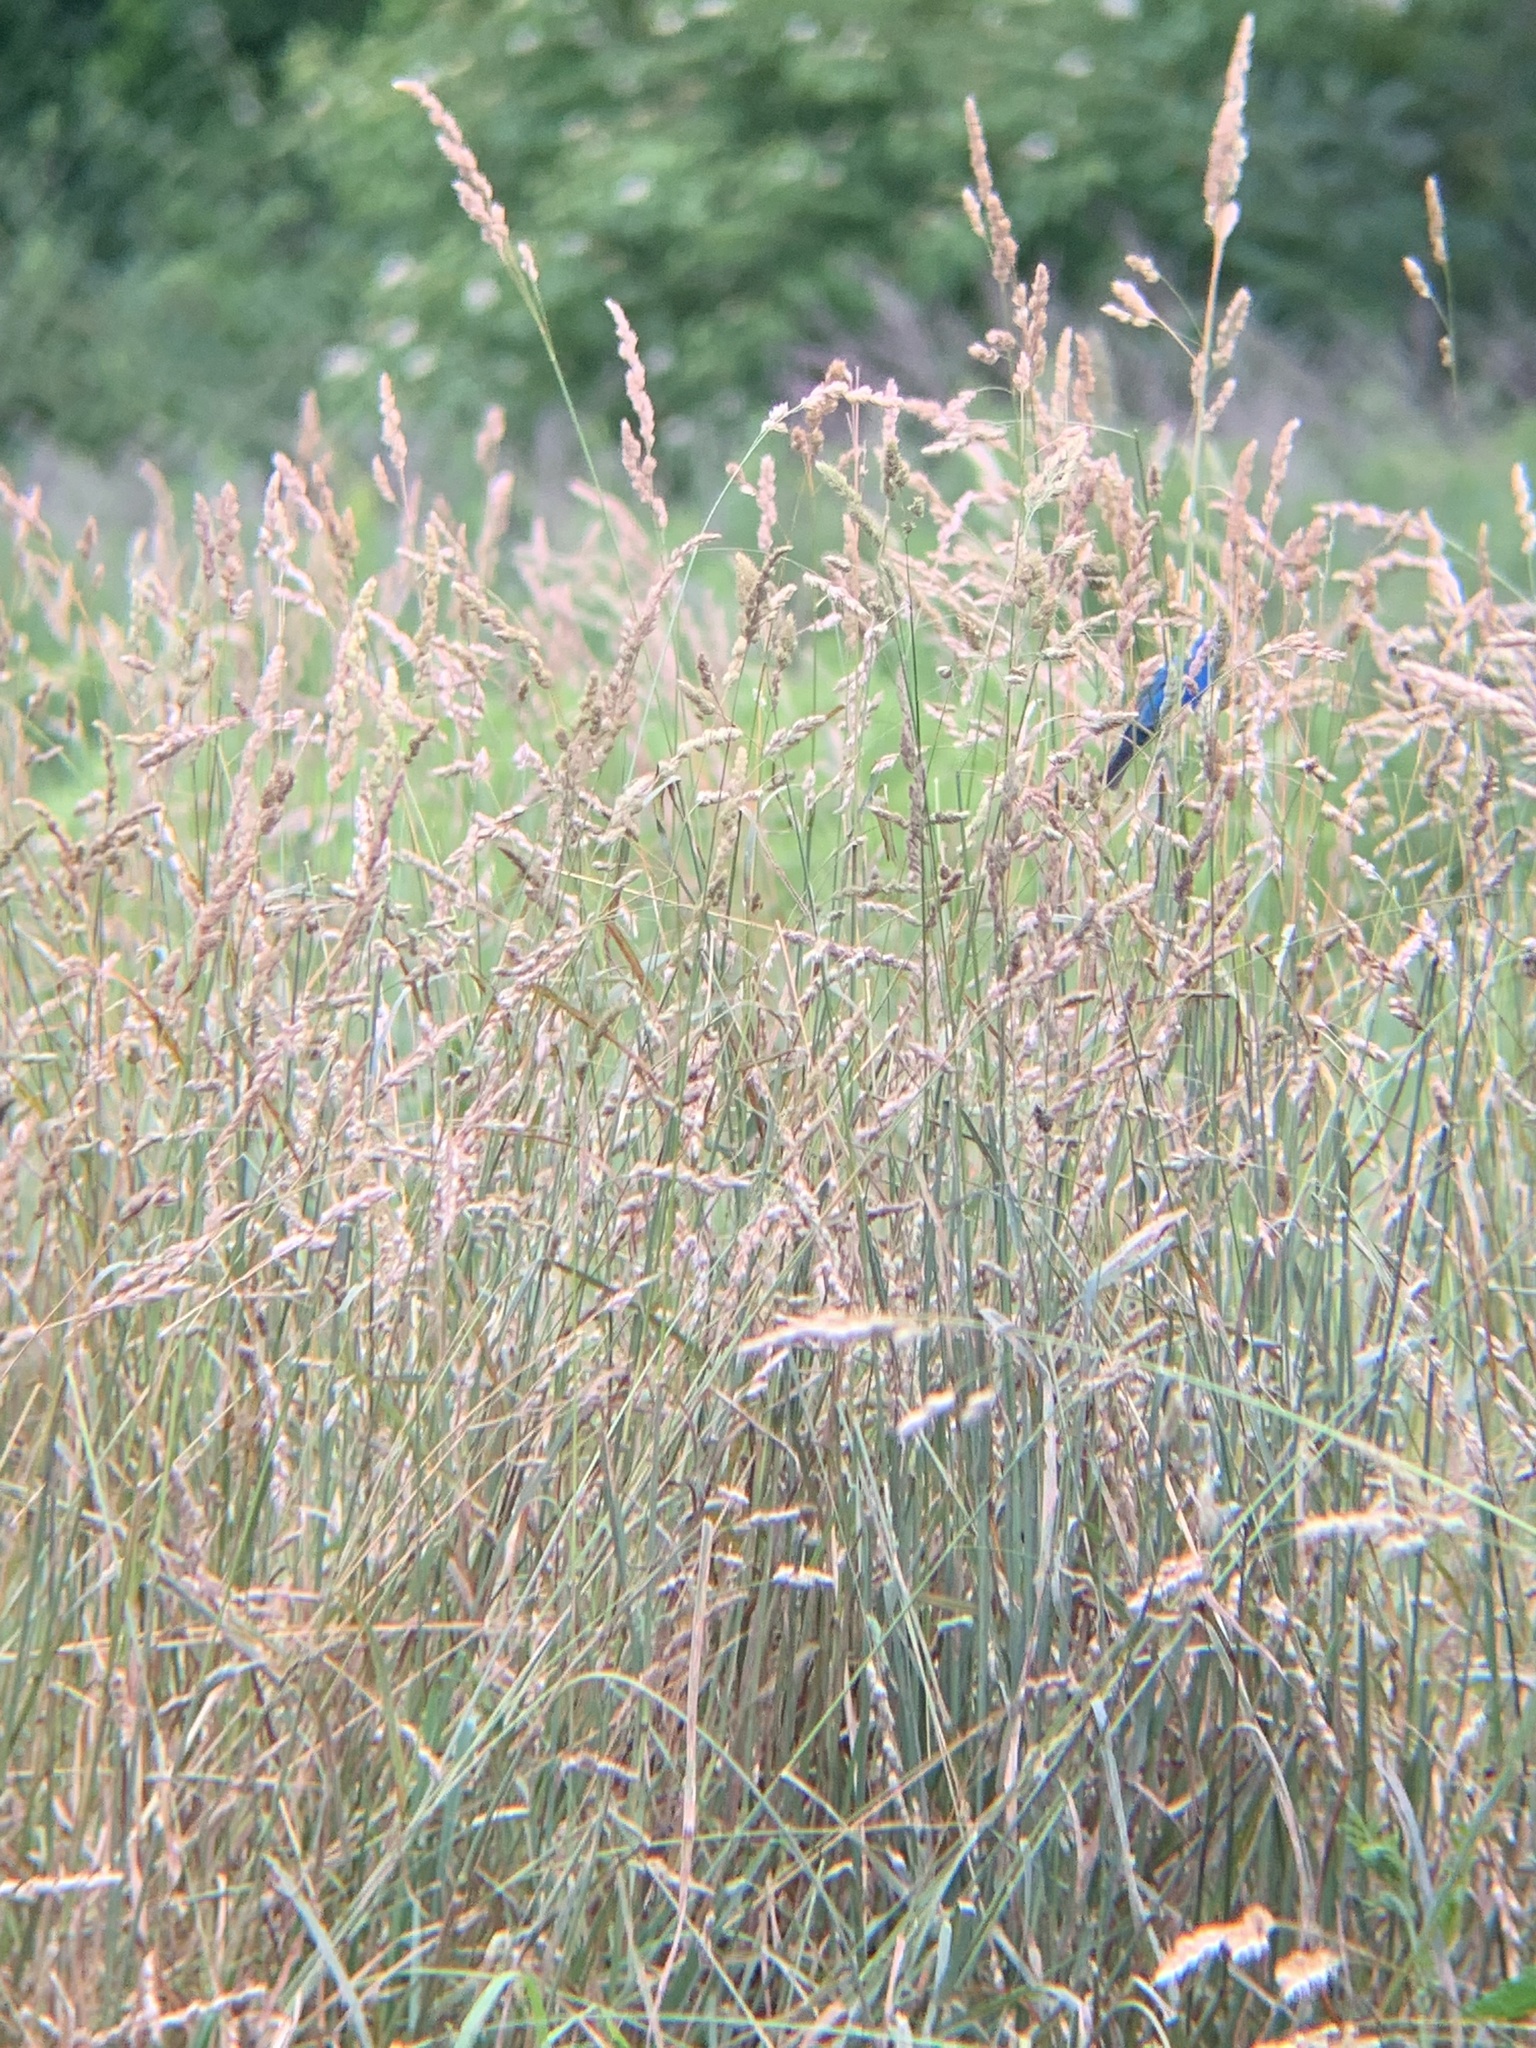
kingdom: Animalia
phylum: Chordata
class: Aves
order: Passeriformes
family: Cardinalidae
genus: Passerina
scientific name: Passerina cyanea
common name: Indigo bunting
